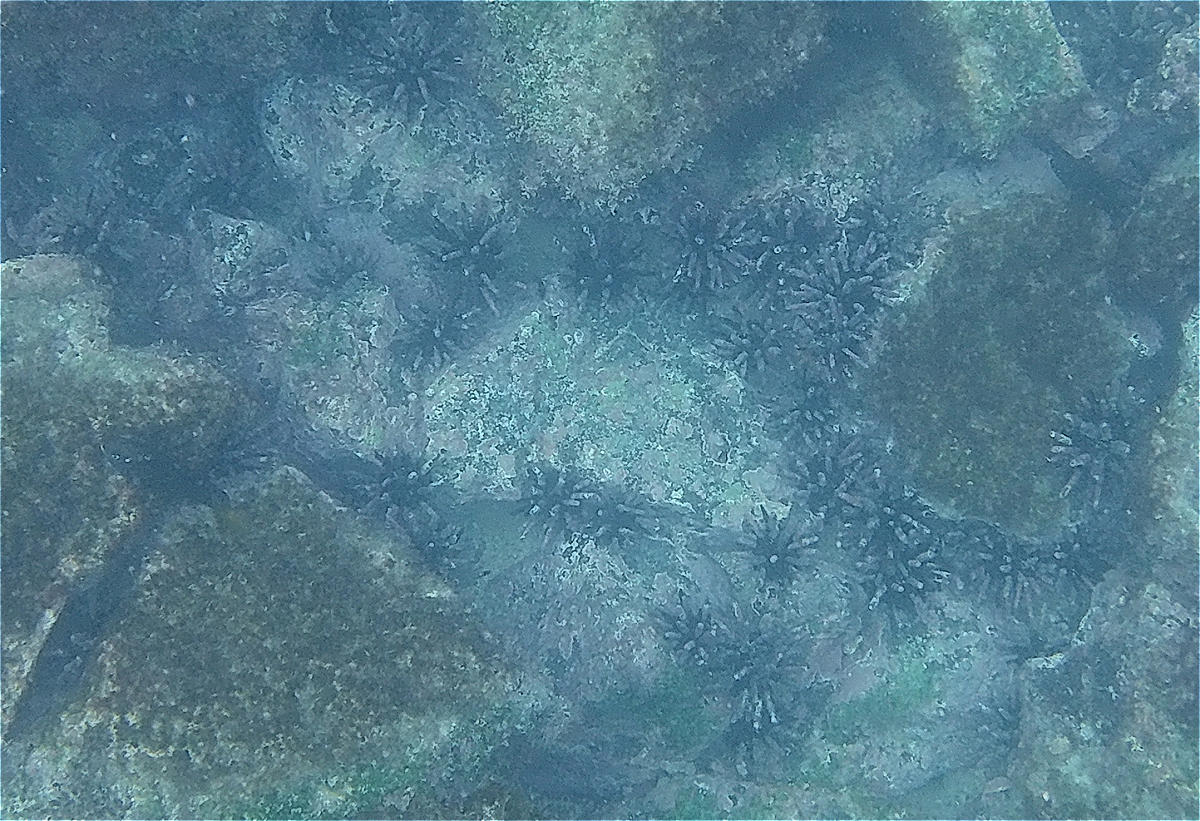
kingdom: Animalia
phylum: Echinodermata
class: Echinoidea
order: Cidaroida
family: Cidaridae
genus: Eucidaris
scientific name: Eucidaris galapagensis
